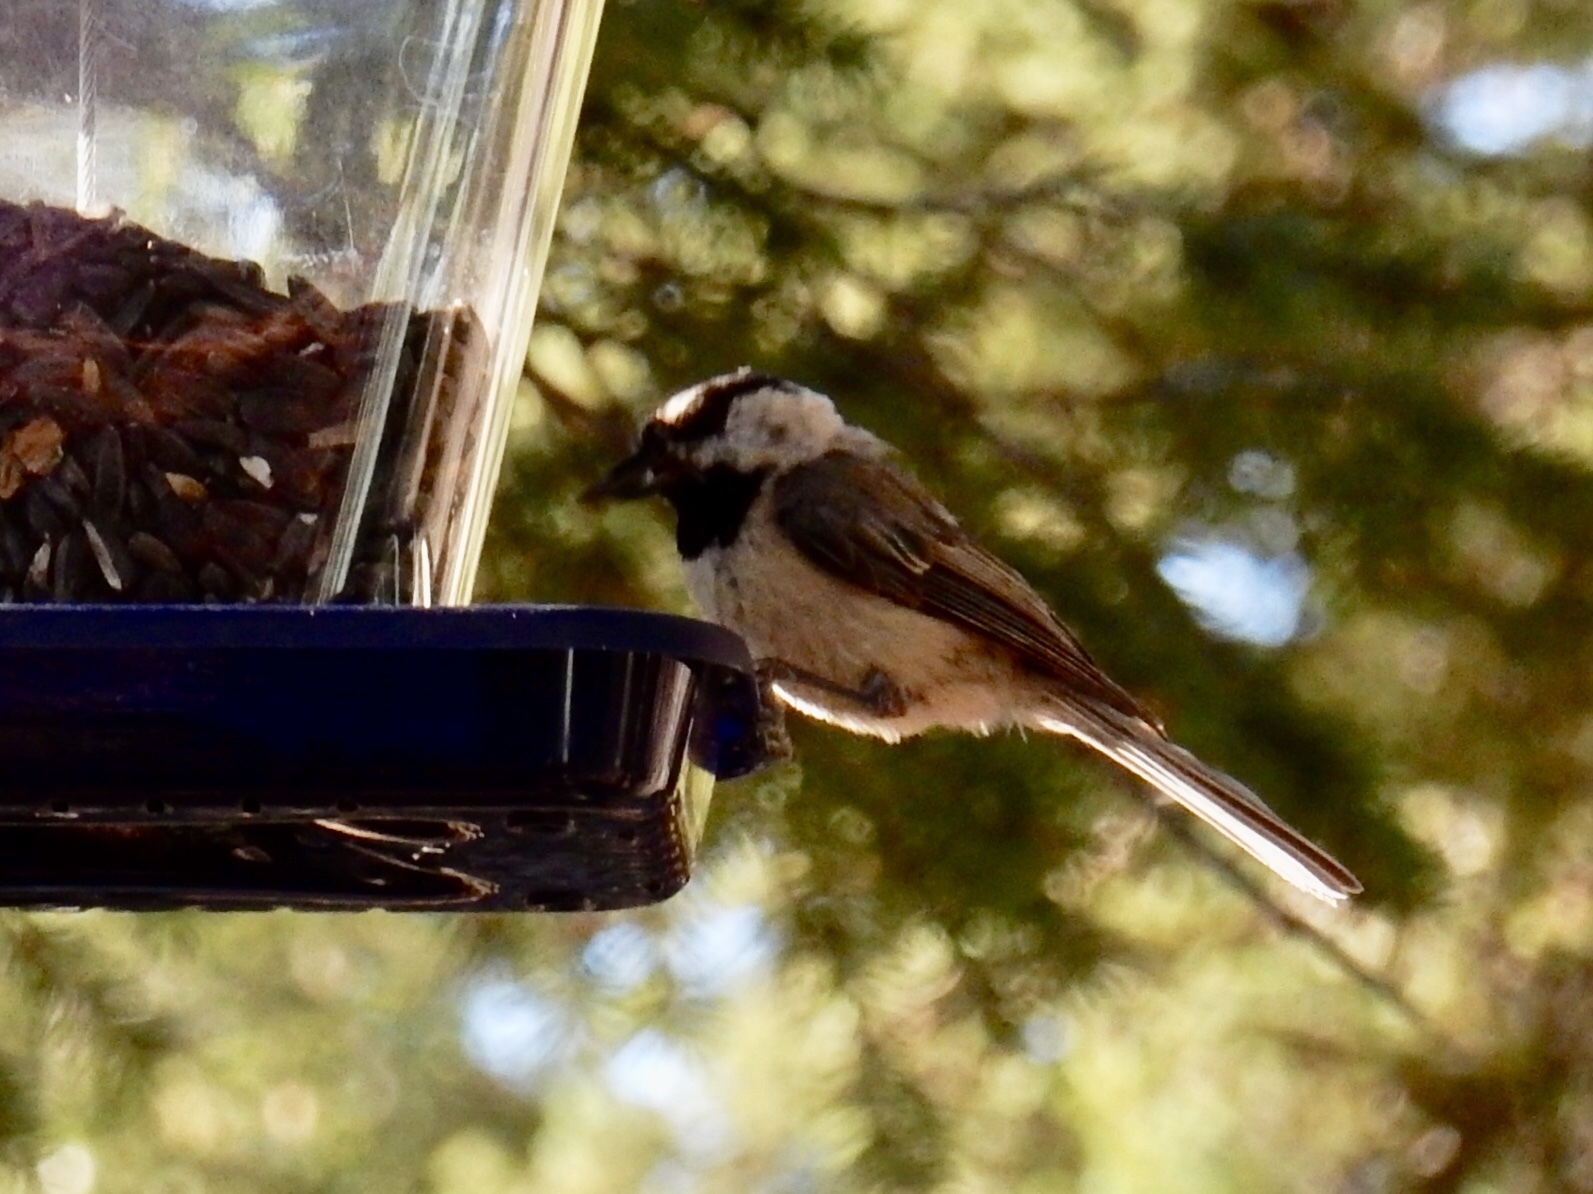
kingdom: Animalia
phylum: Chordata
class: Aves
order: Passeriformes
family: Paridae
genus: Poecile
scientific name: Poecile gambeli
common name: Mountain chickadee
